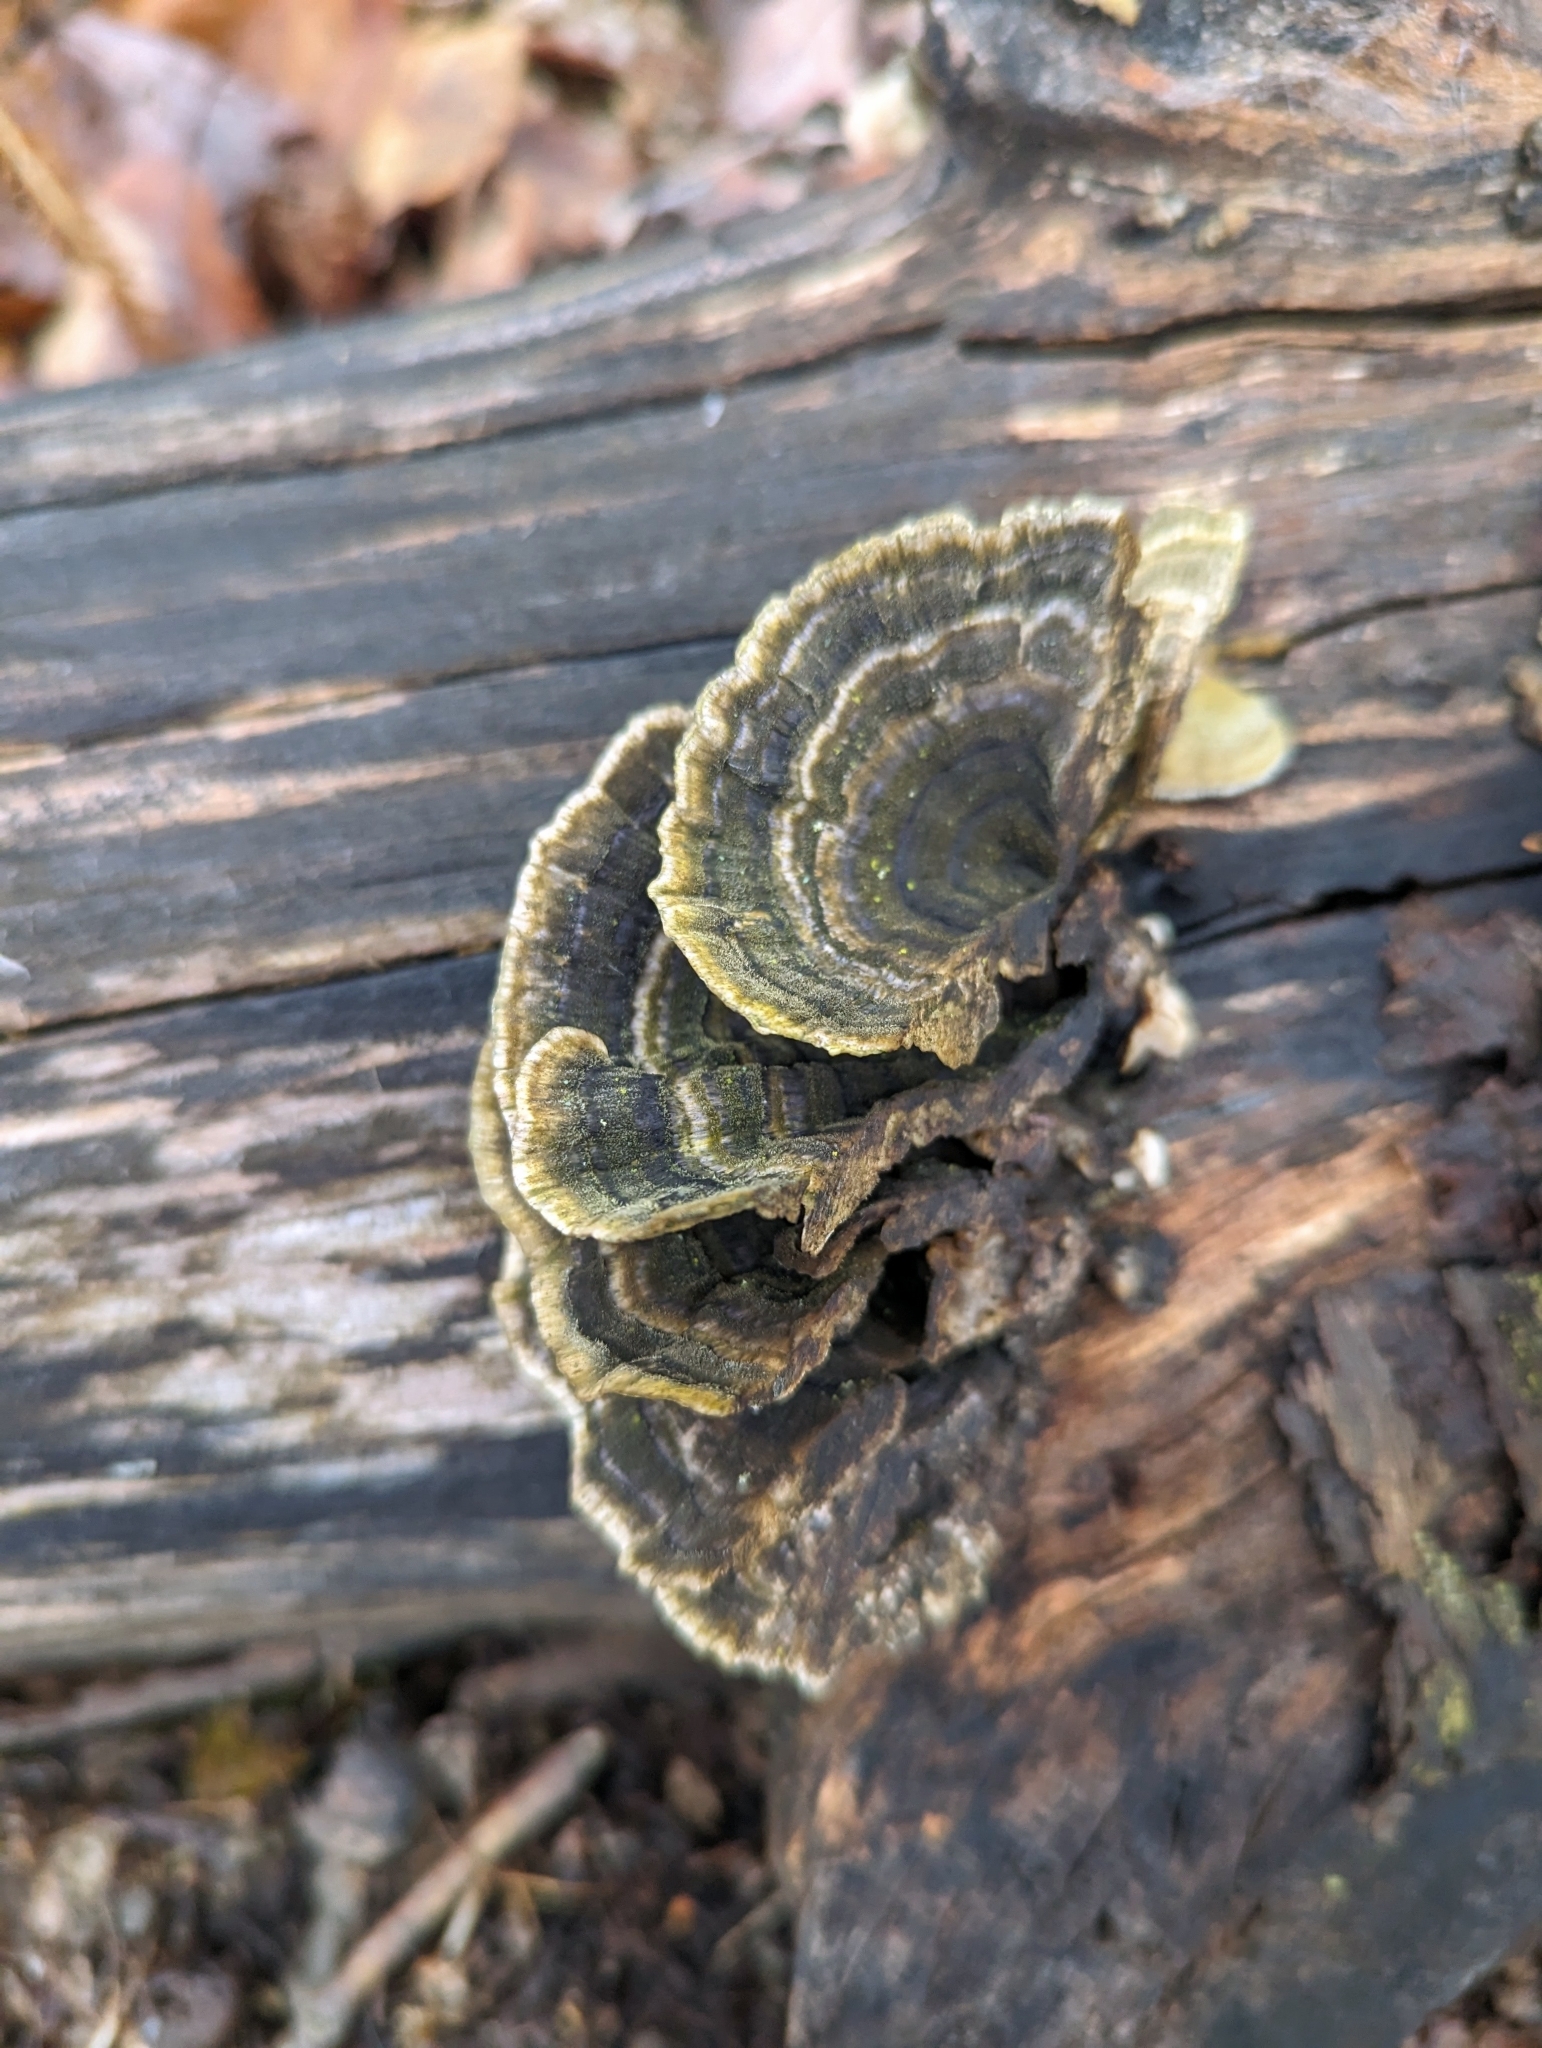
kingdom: Fungi
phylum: Basidiomycota
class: Agaricomycetes
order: Polyporales
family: Polyporaceae
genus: Trametes
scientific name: Trametes versicolor
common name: Turkeytail
